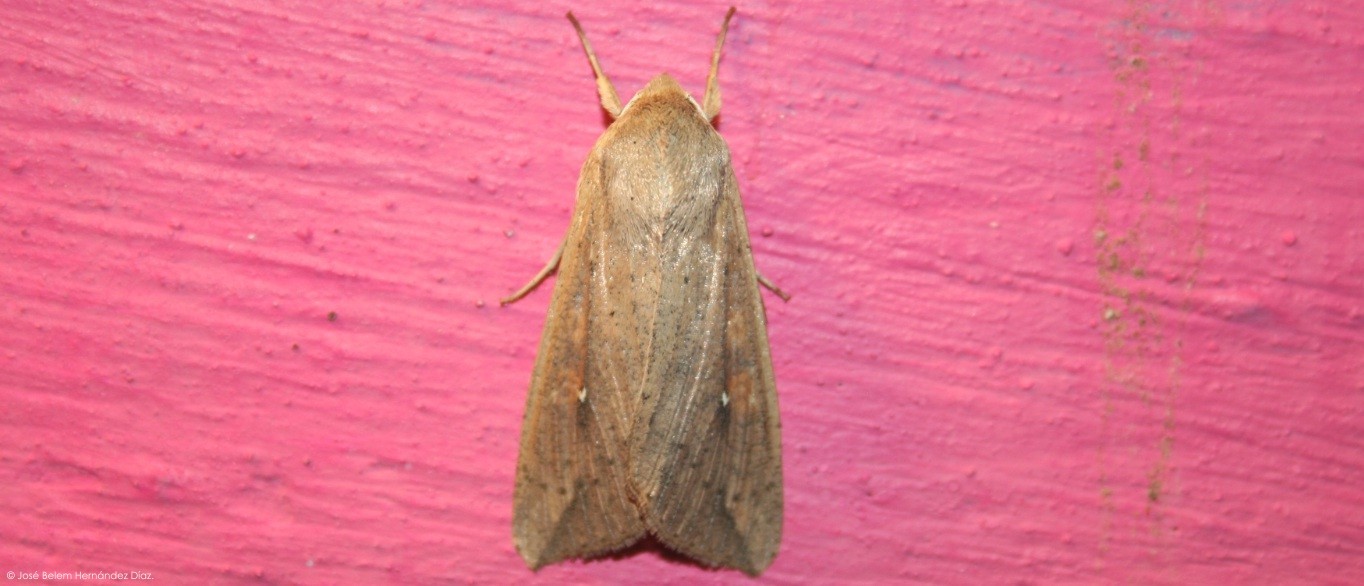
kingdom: Animalia
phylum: Arthropoda
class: Insecta
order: Lepidoptera
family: Noctuidae
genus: Mythimna
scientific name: Mythimna unipuncta
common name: White-speck
